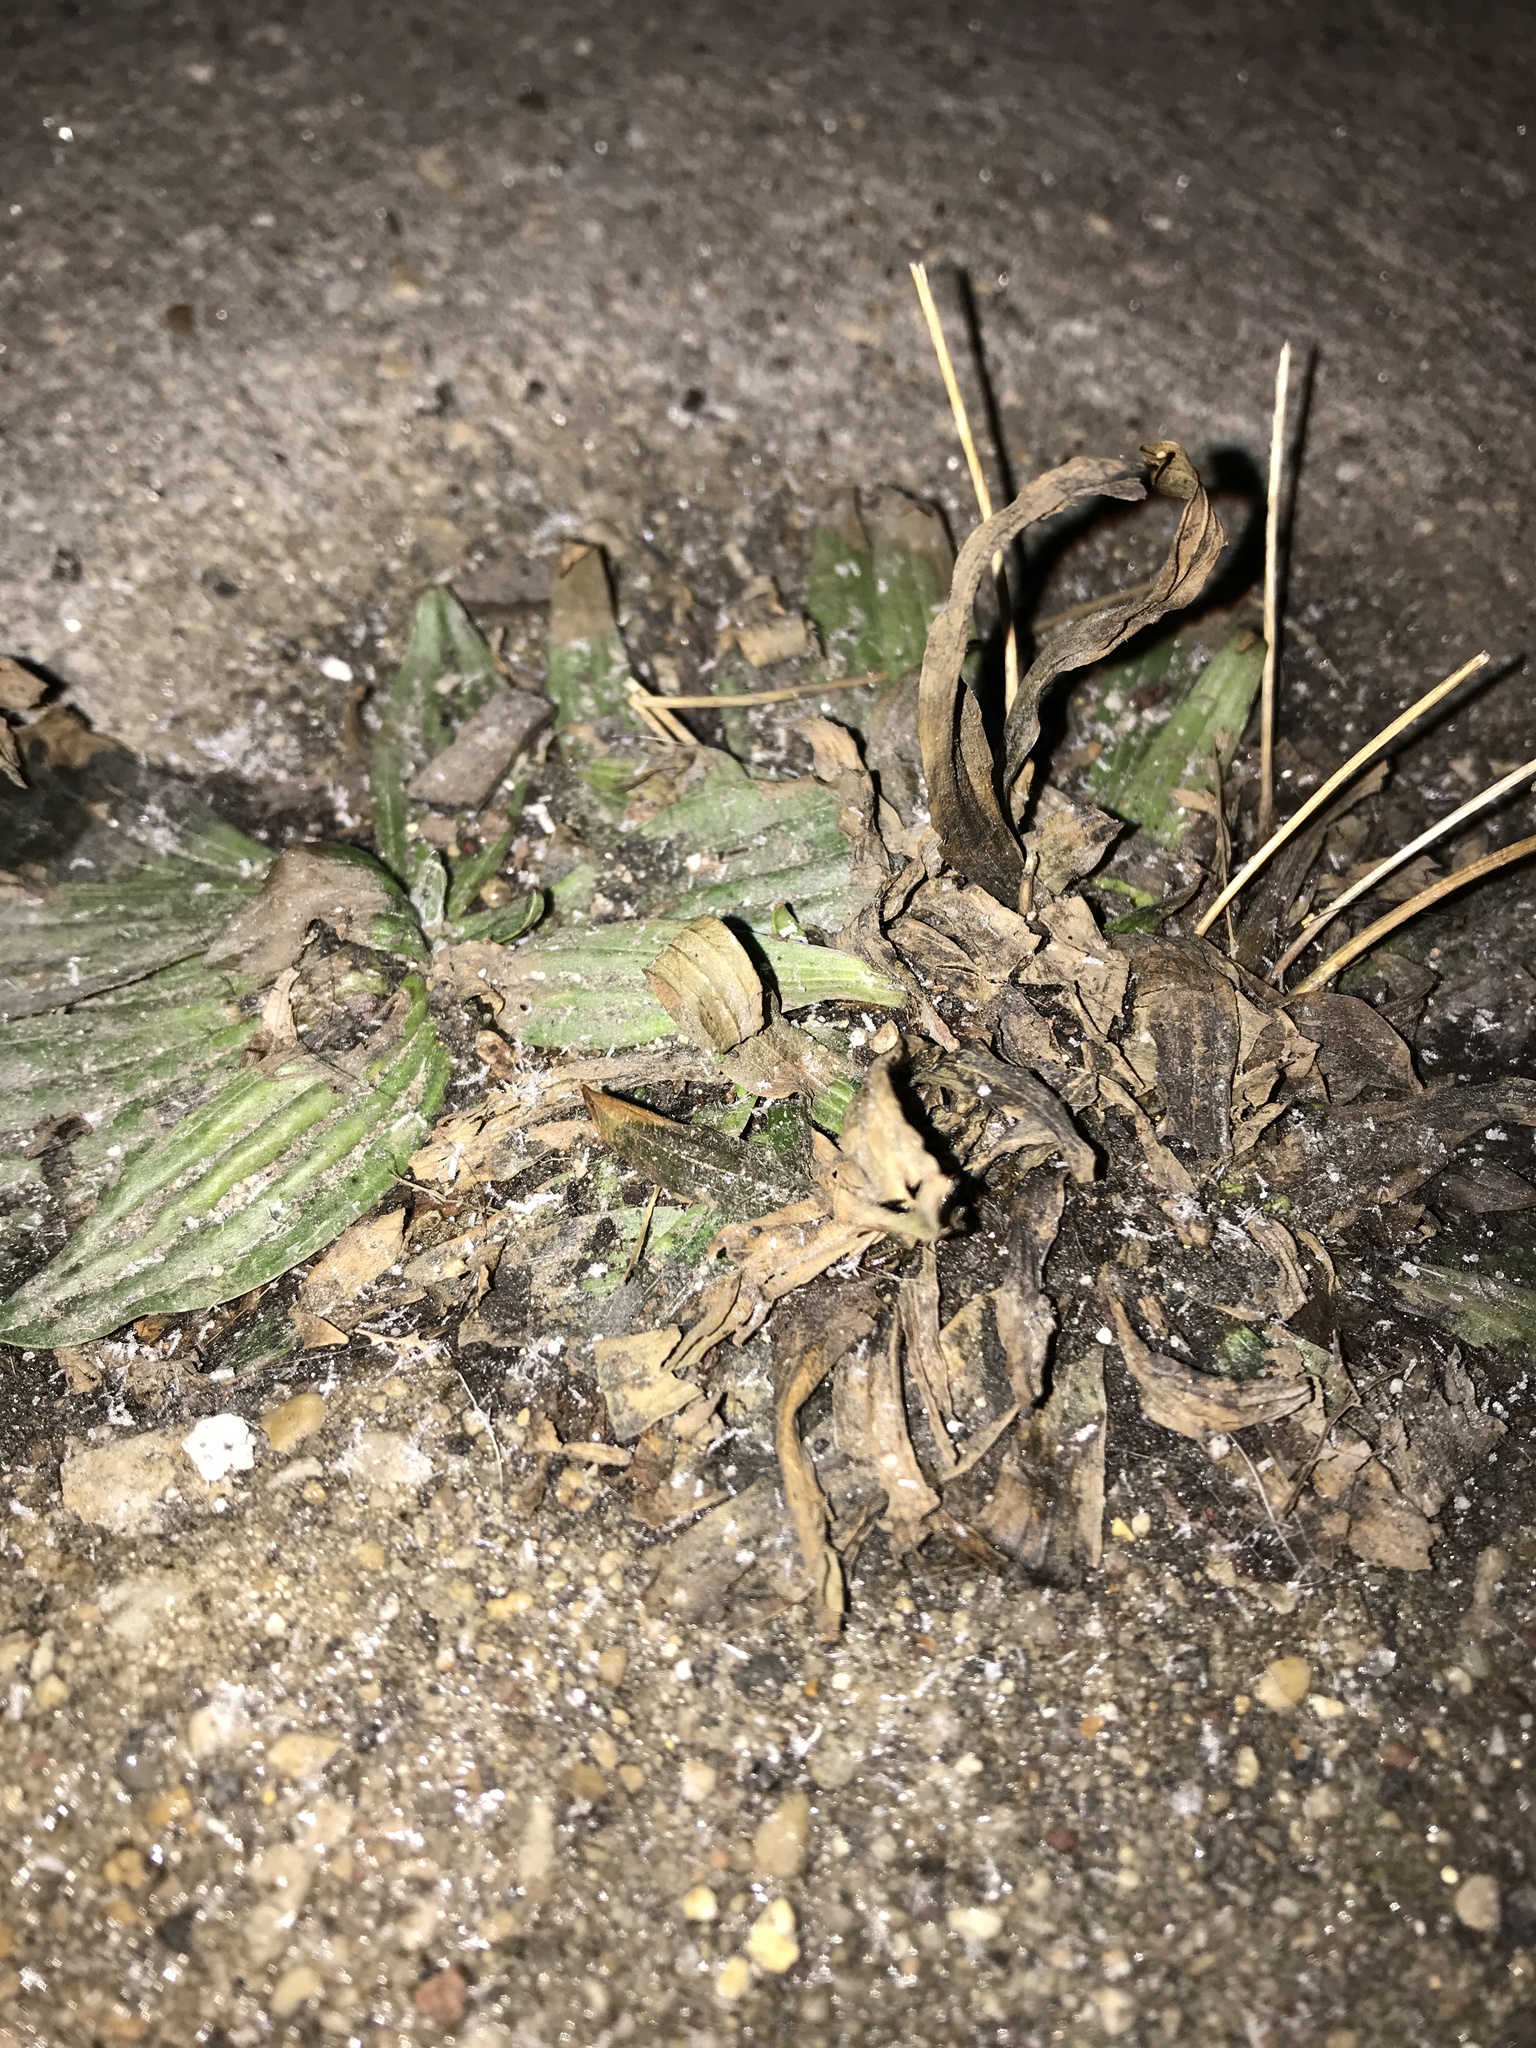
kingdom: Plantae
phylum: Tracheophyta
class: Magnoliopsida
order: Lamiales
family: Plantaginaceae
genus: Plantago
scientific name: Plantago lanceolata
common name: Ribwort plantain
